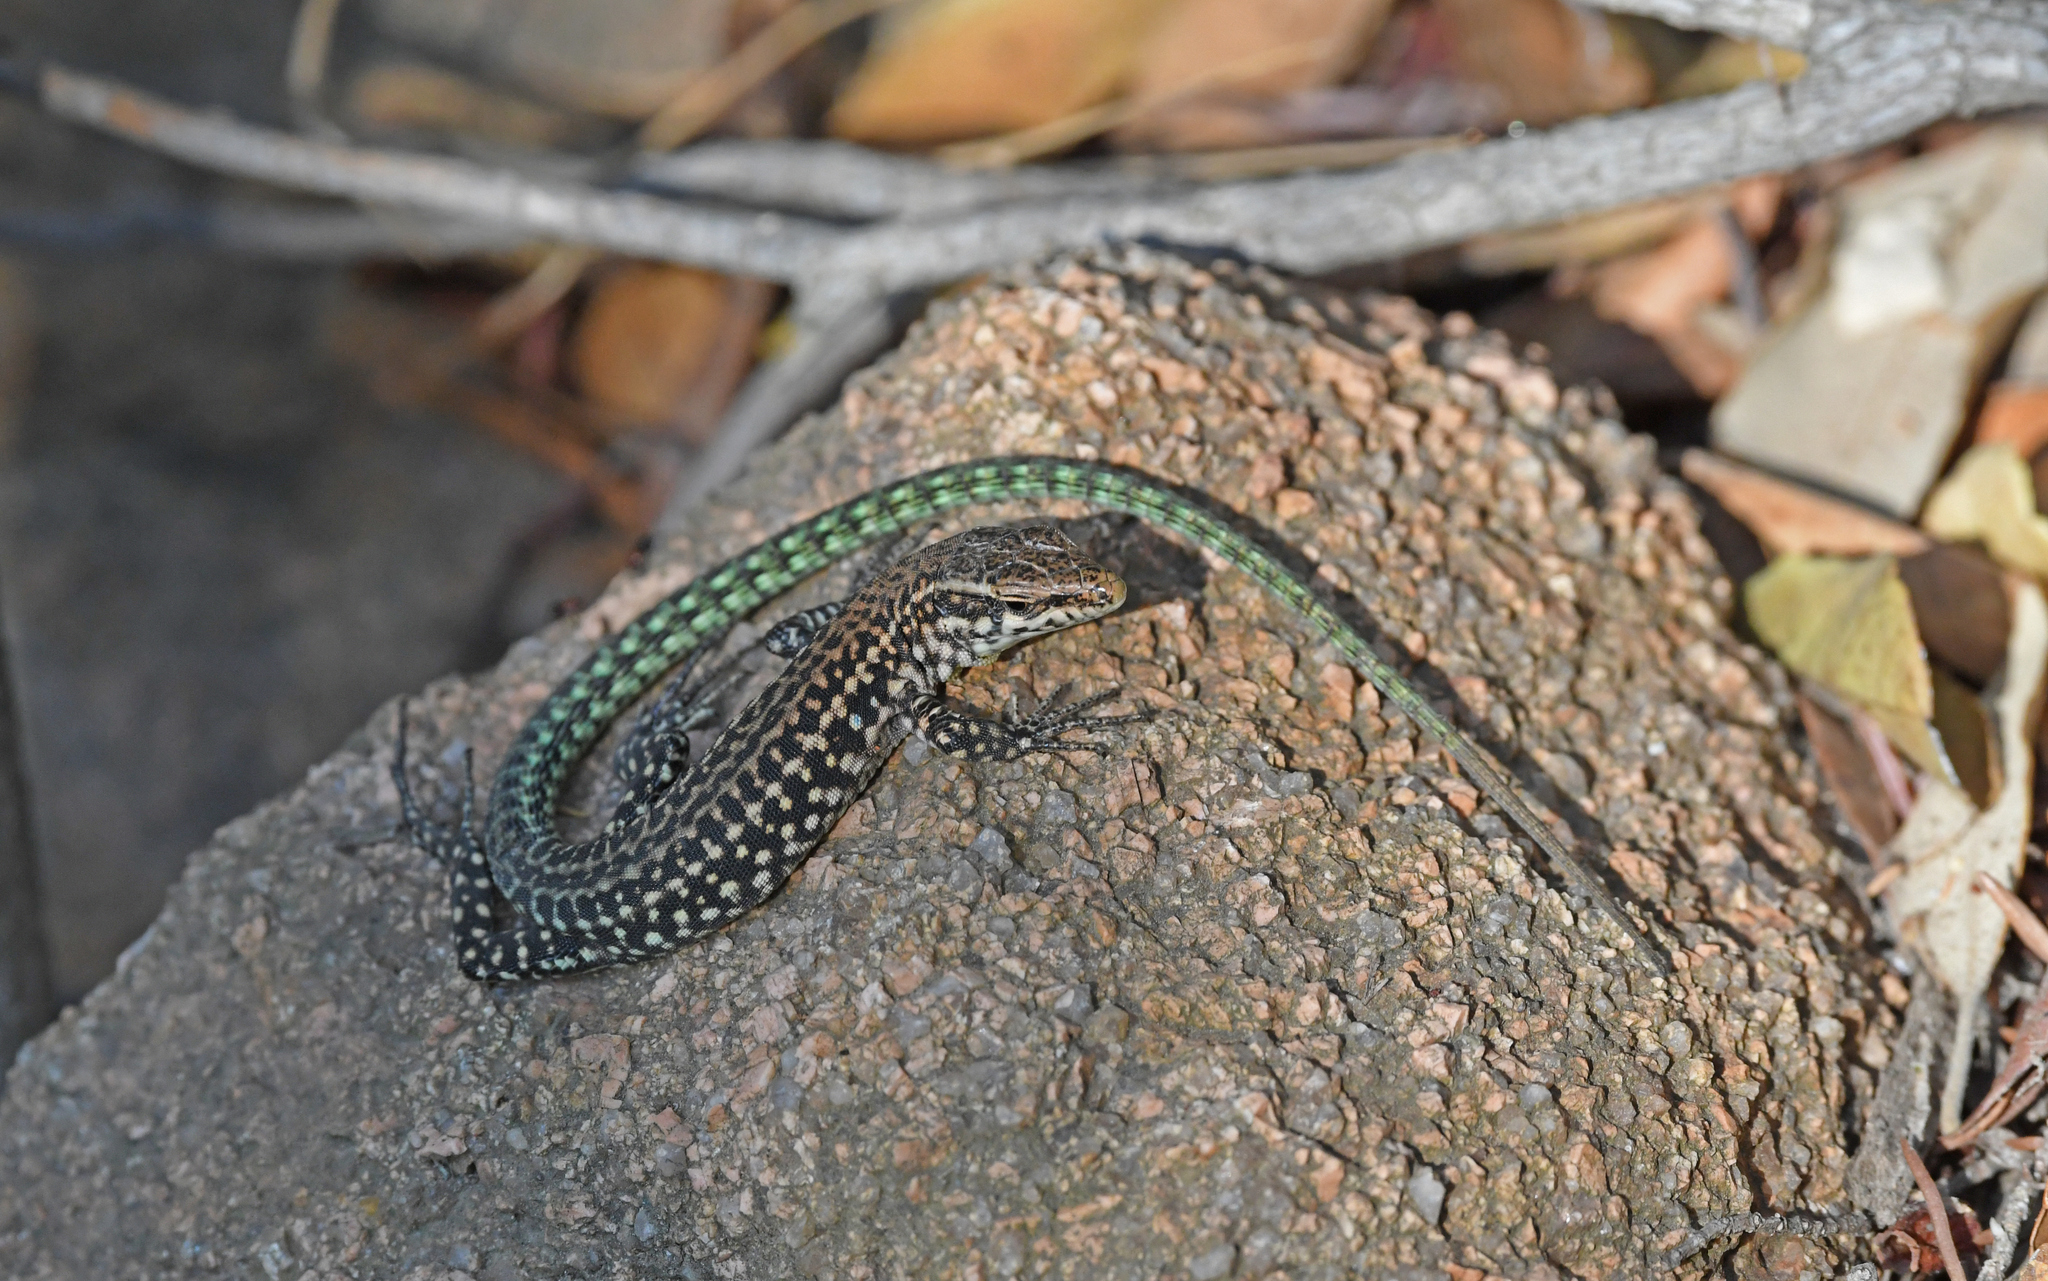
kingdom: Animalia
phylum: Chordata
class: Squamata
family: Lacertidae
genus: Podarcis
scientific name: Podarcis tiliguerta
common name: Tyrrhenian wall lizard
